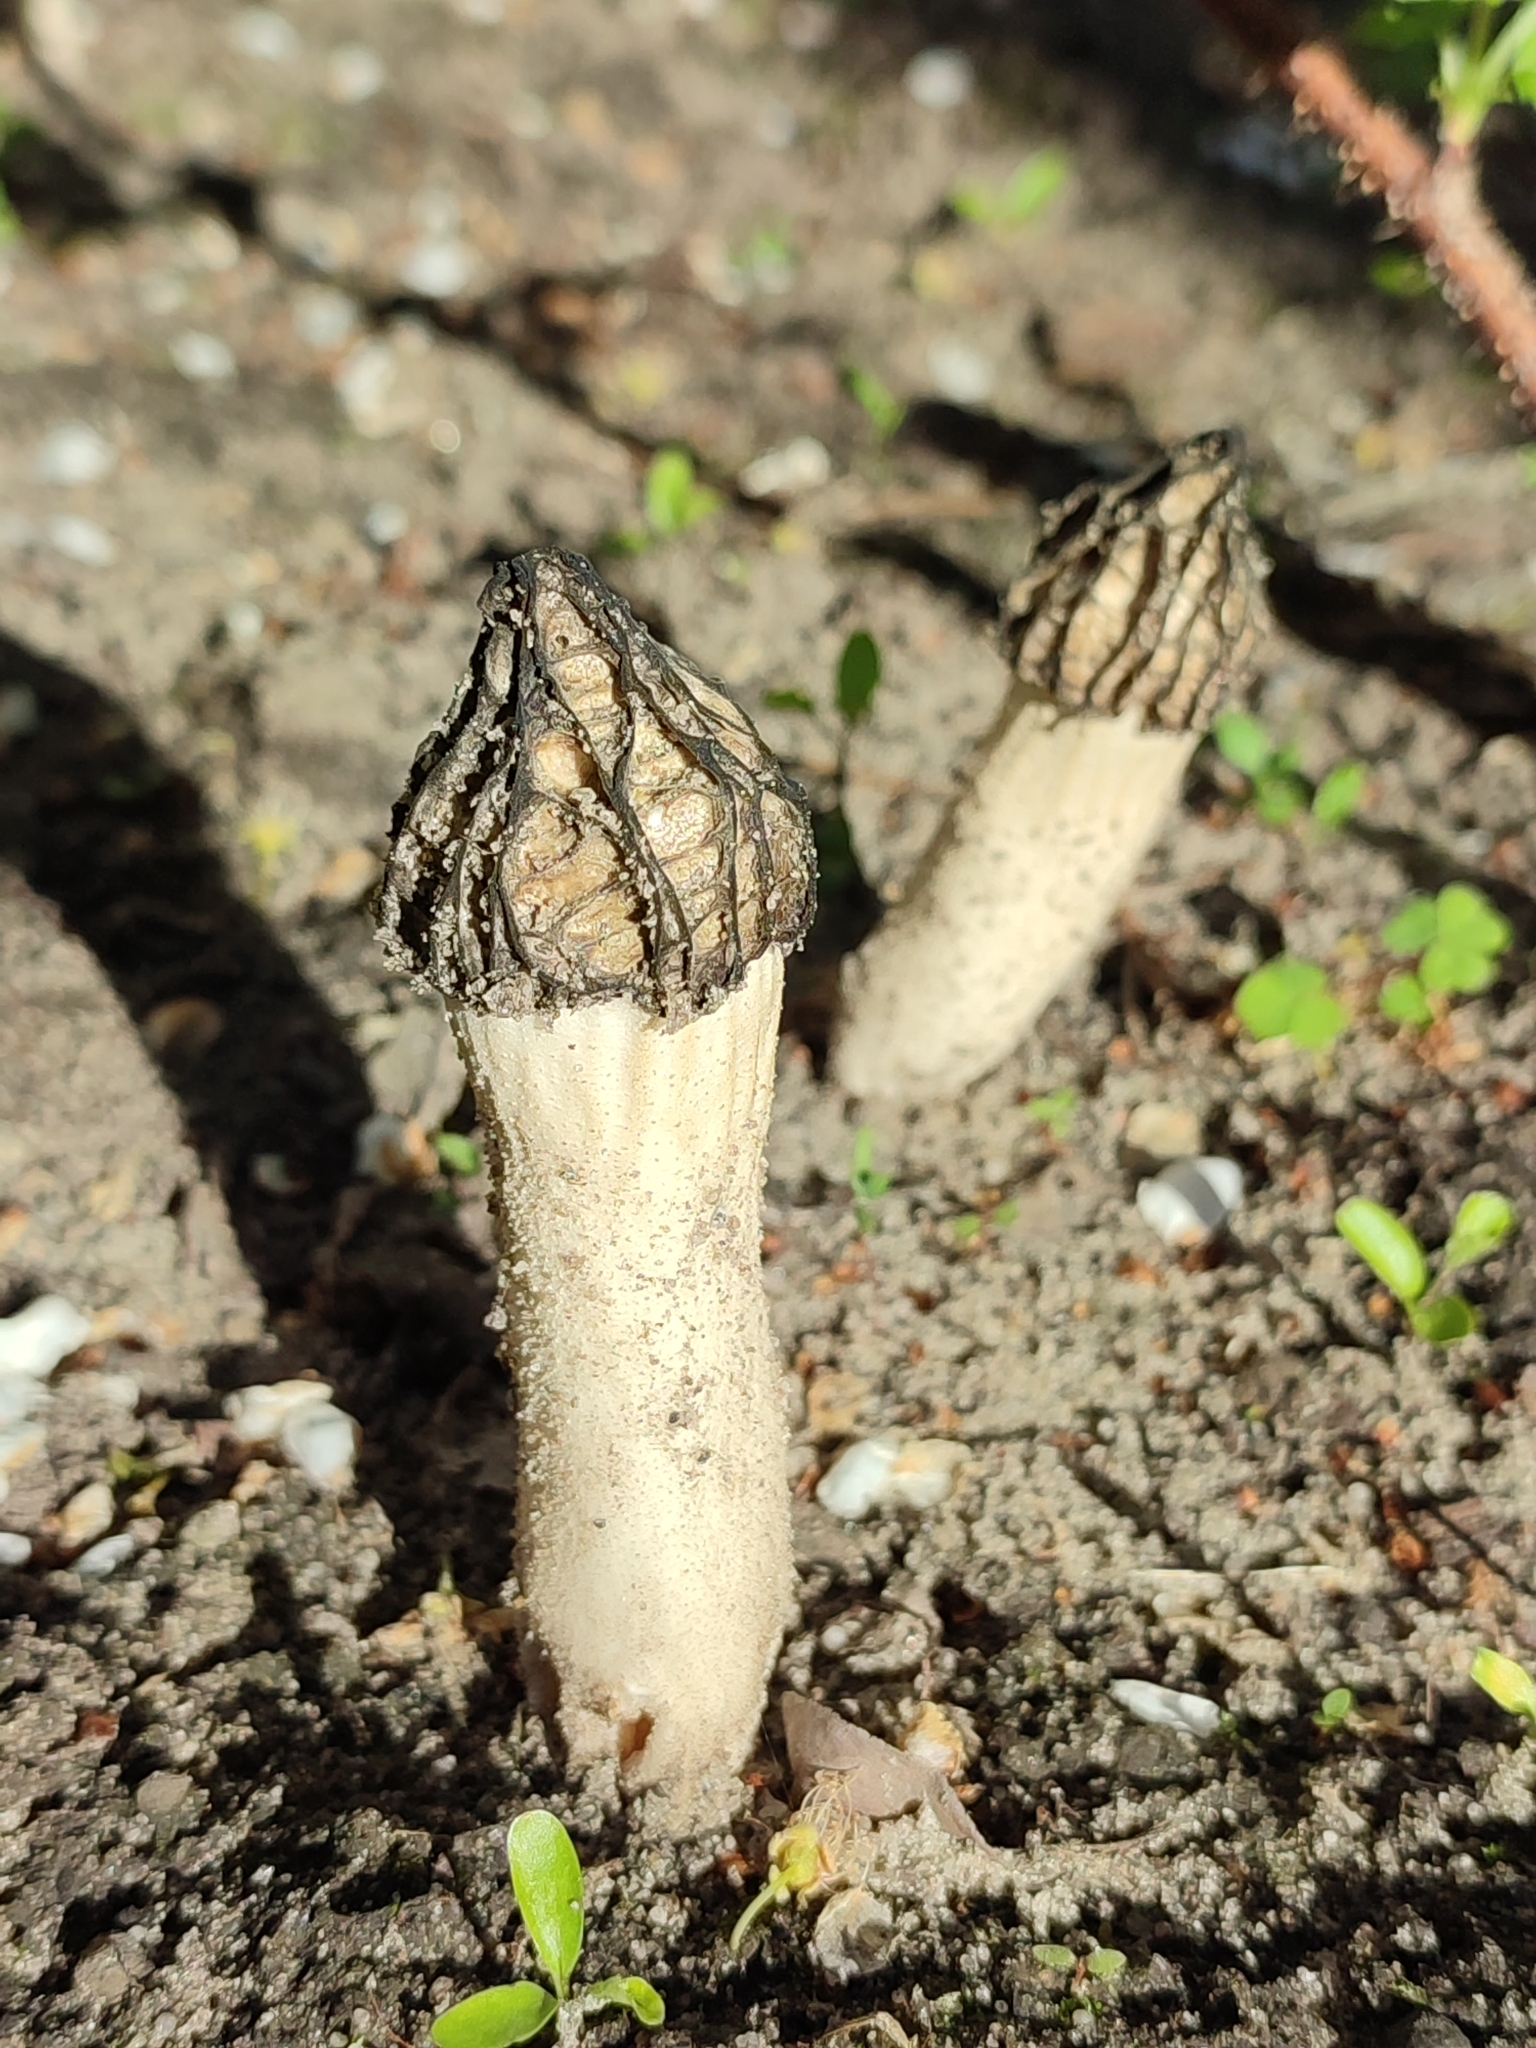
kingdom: Fungi
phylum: Ascomycota
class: Pezizomycetes
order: Pezizales
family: Morchellaceae
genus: Morchella
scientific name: Morchella semilibera
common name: Semifree morel
